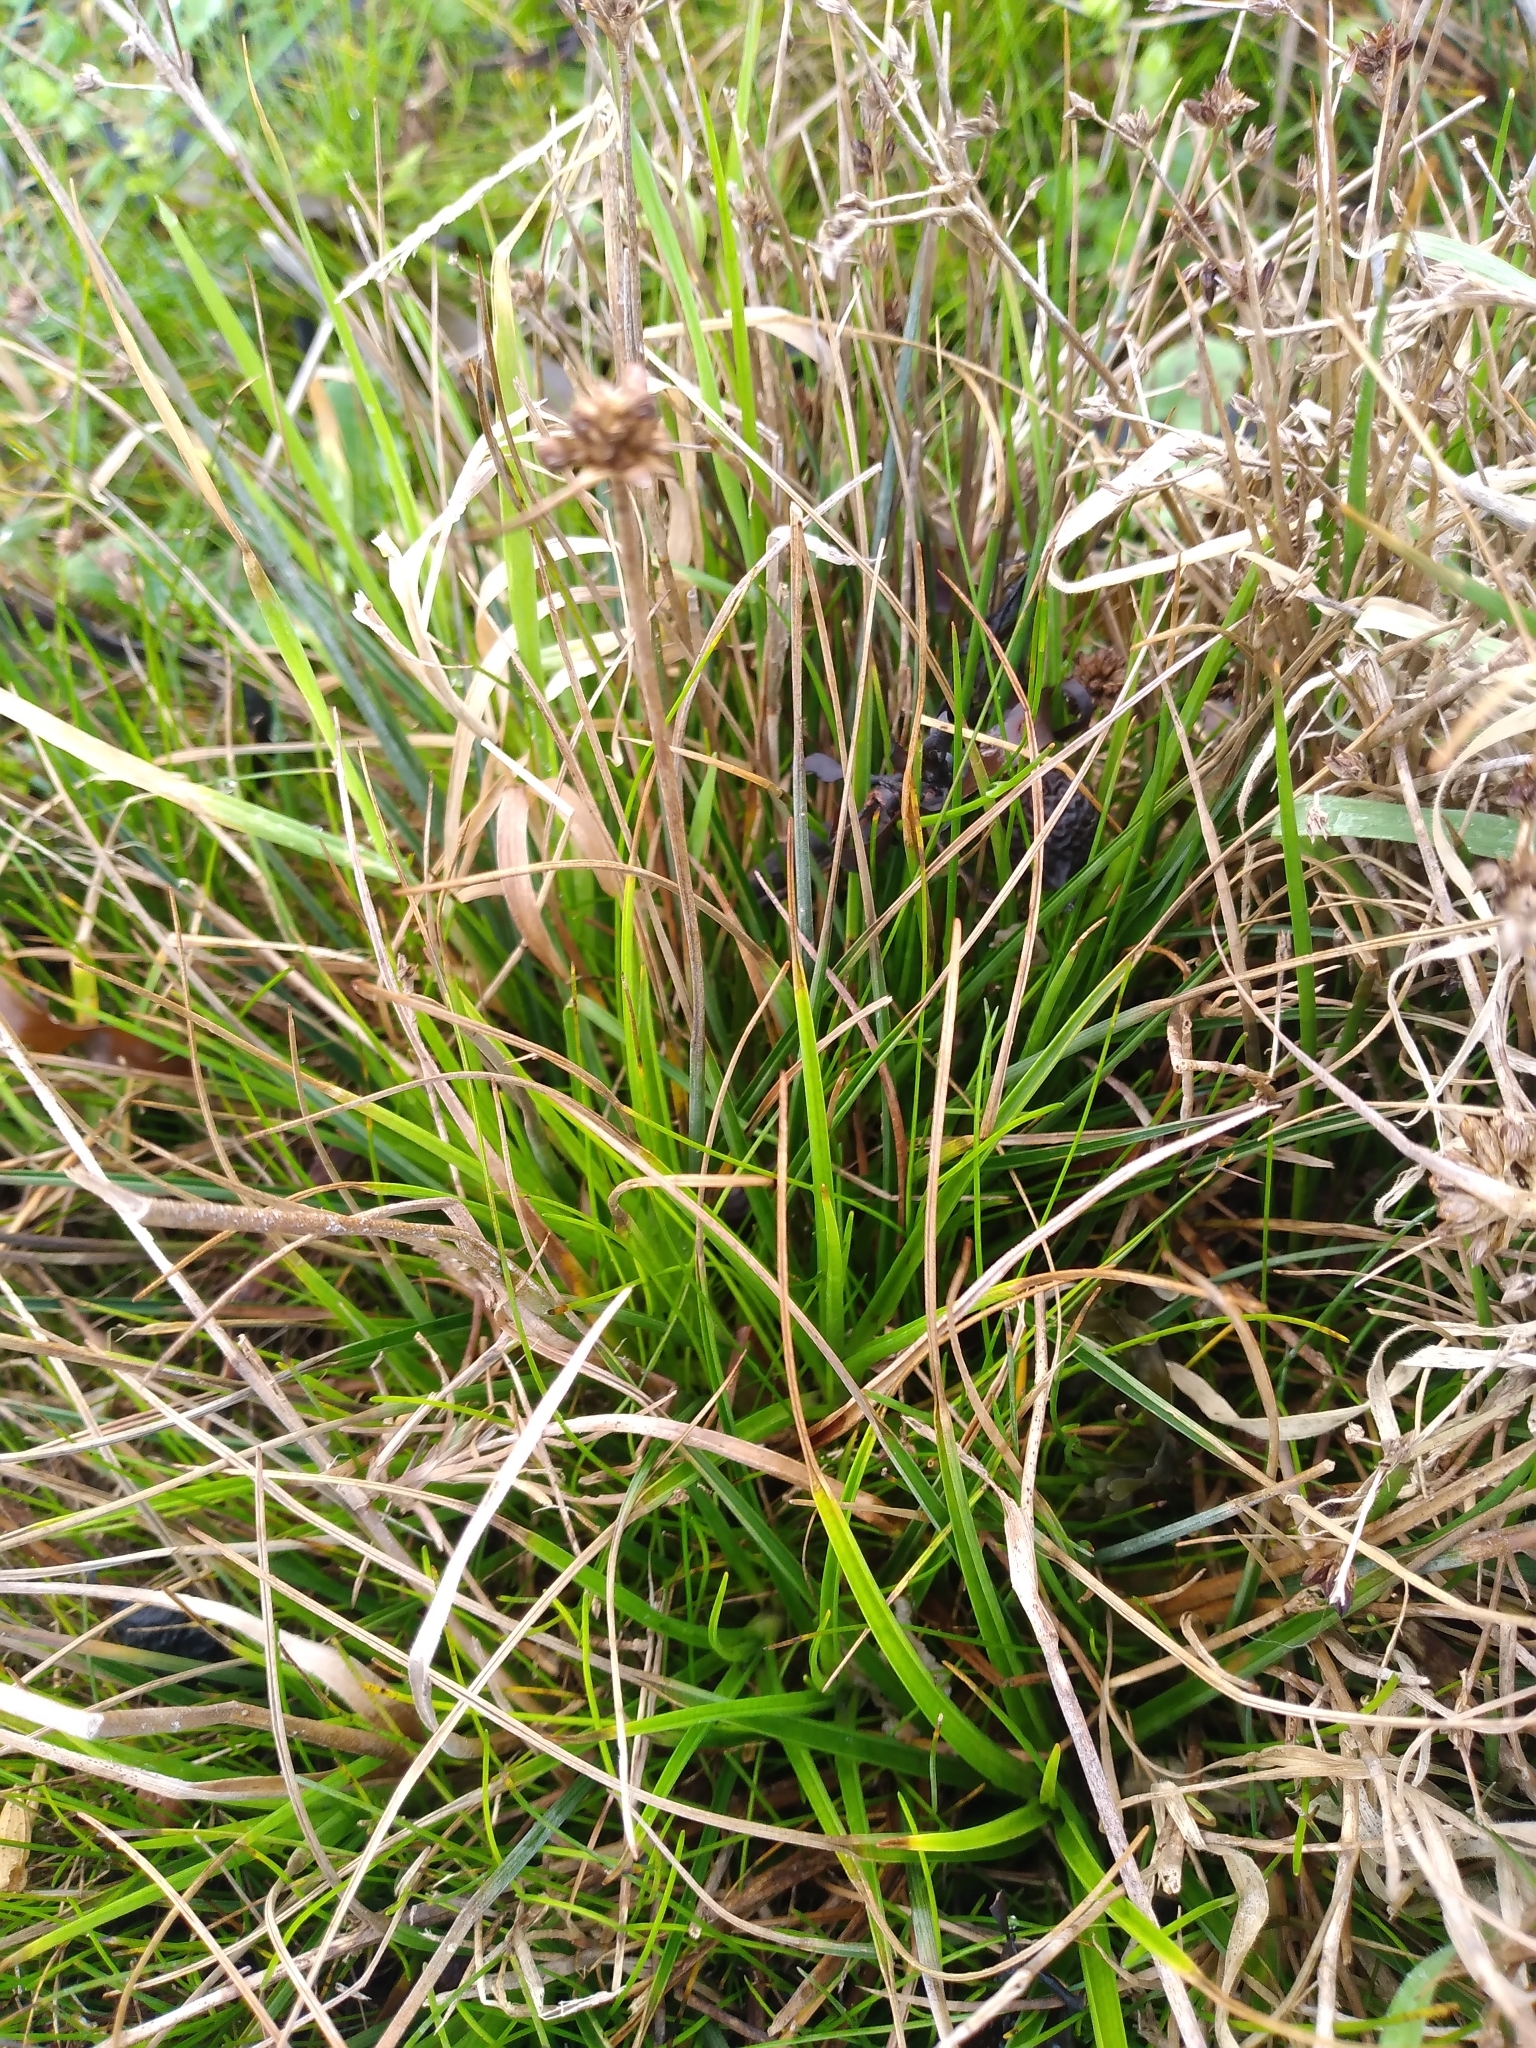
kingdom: Plantae
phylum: Tracheophyta
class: Liliopsida
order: Poales
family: Juncaceae
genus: Juncus
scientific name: Juncus caespiticius
